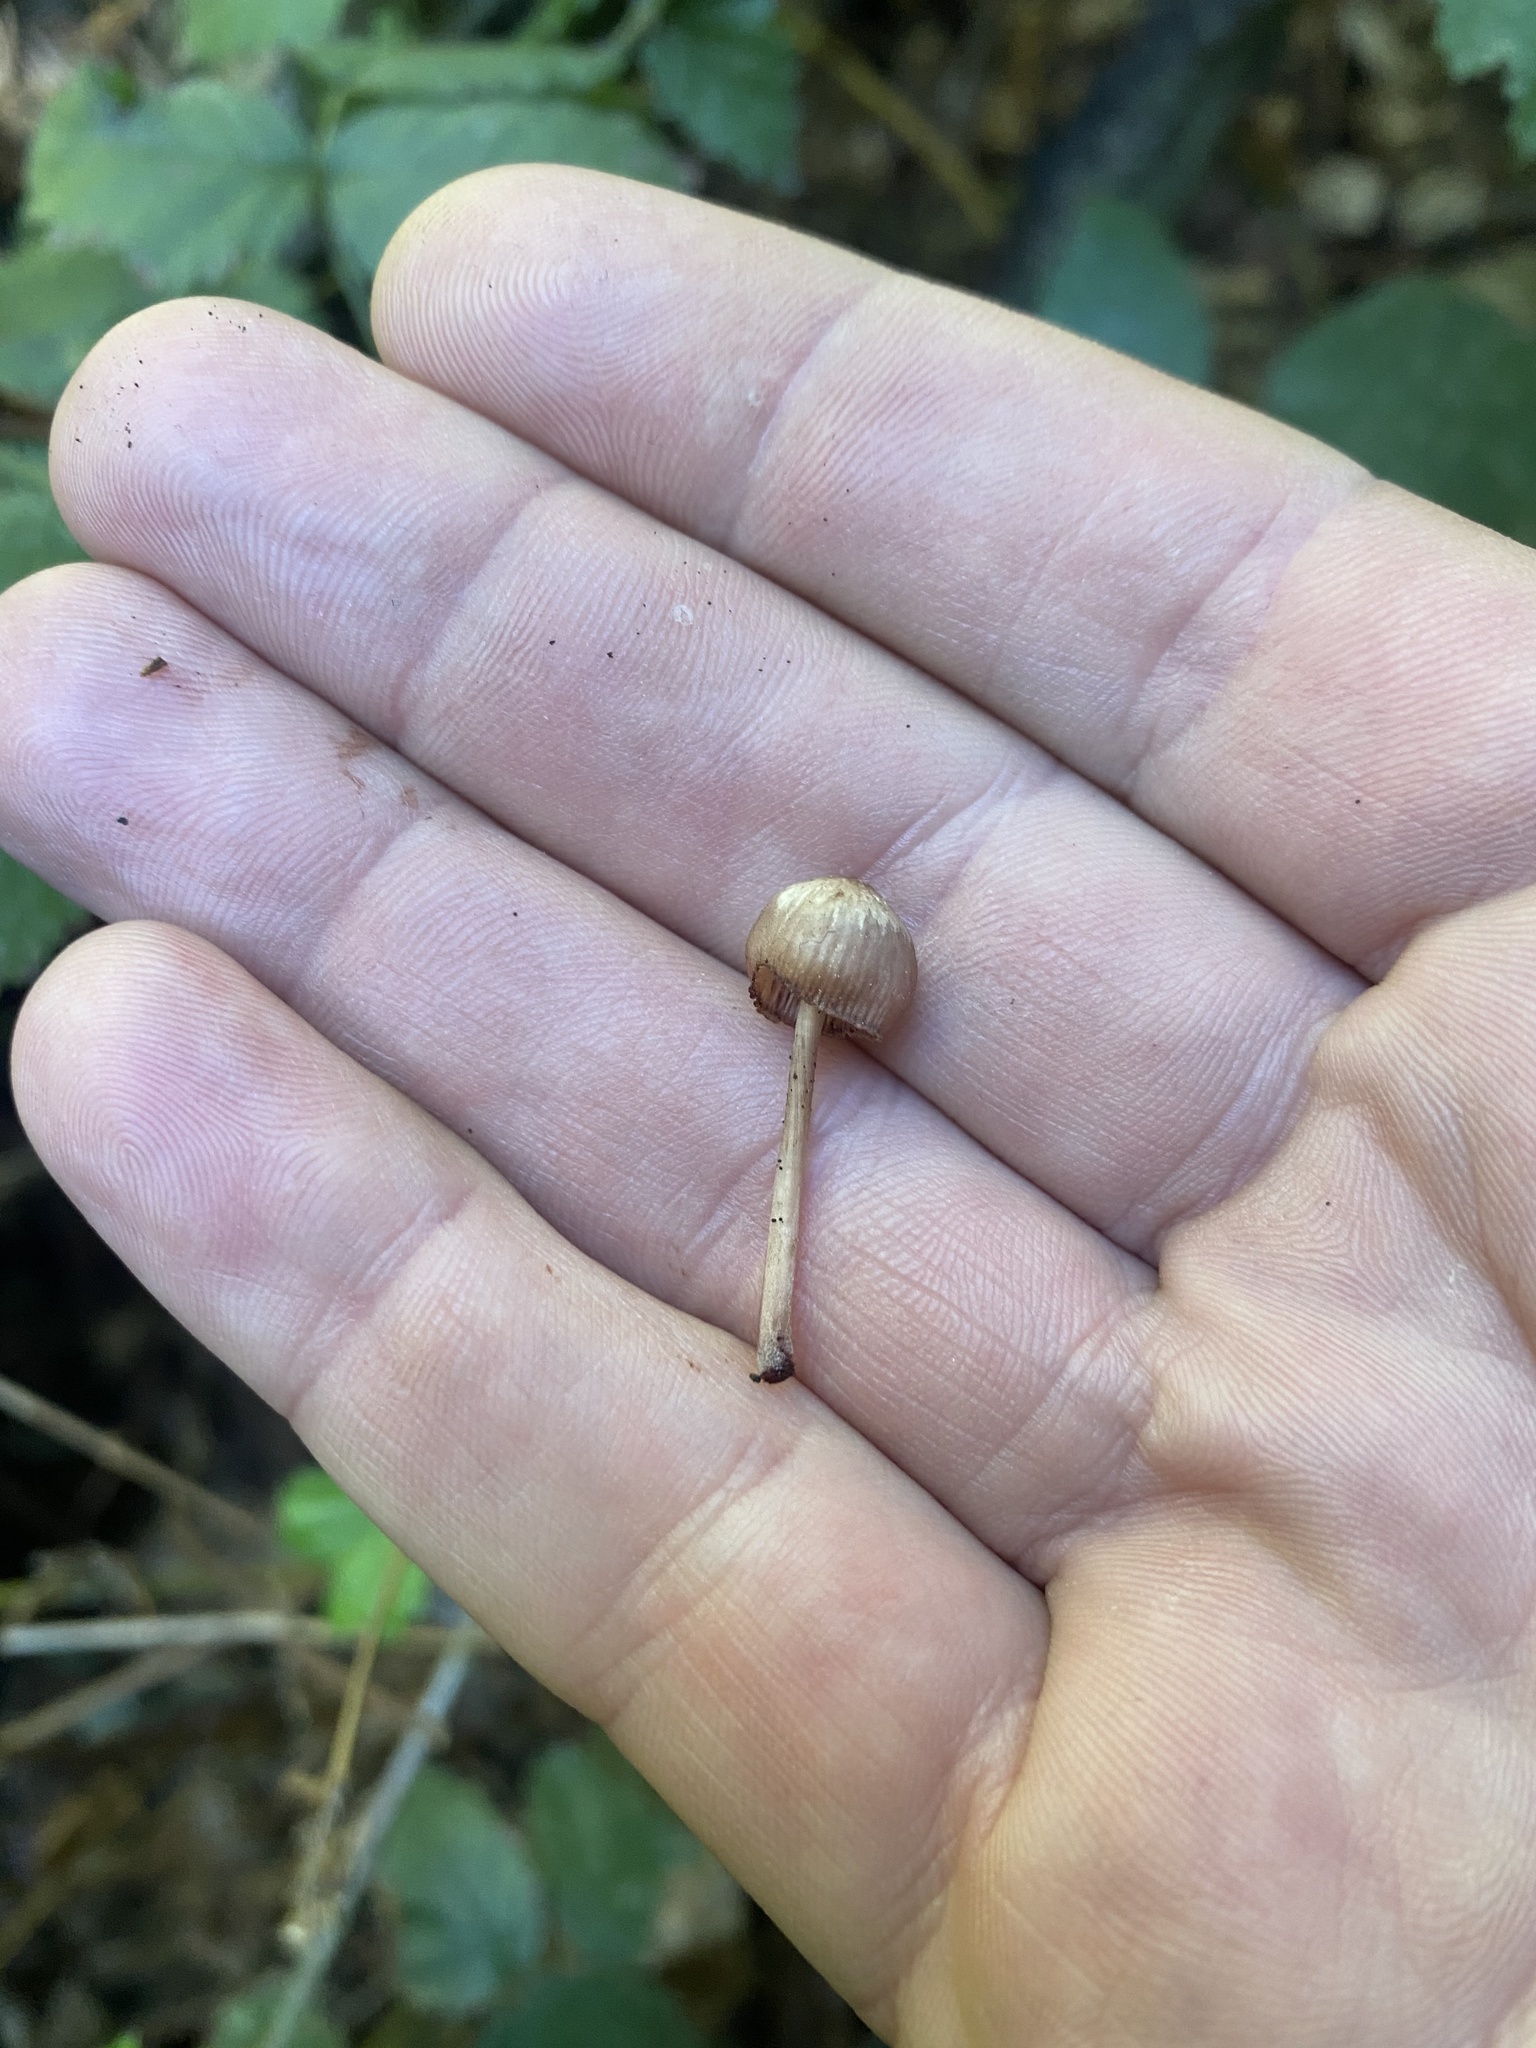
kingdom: Fungi
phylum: Basidiomycota
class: Agaricomycetes
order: Agaricales
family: Mycenaceae
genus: Mycena
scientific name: Mycena haematopus
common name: Burgundydrop bonnet
